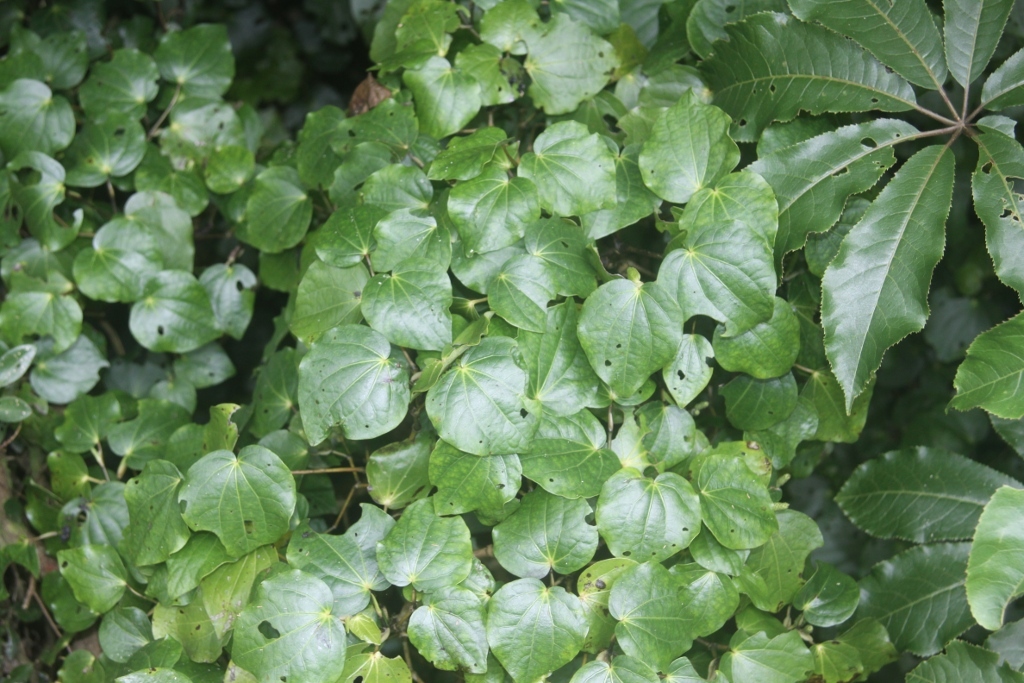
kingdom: Plantae
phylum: Tracheophyta
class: Magnoliopsida
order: Piperales
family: Piperaceae
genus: Macropiper
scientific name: Macropiper excelsum
